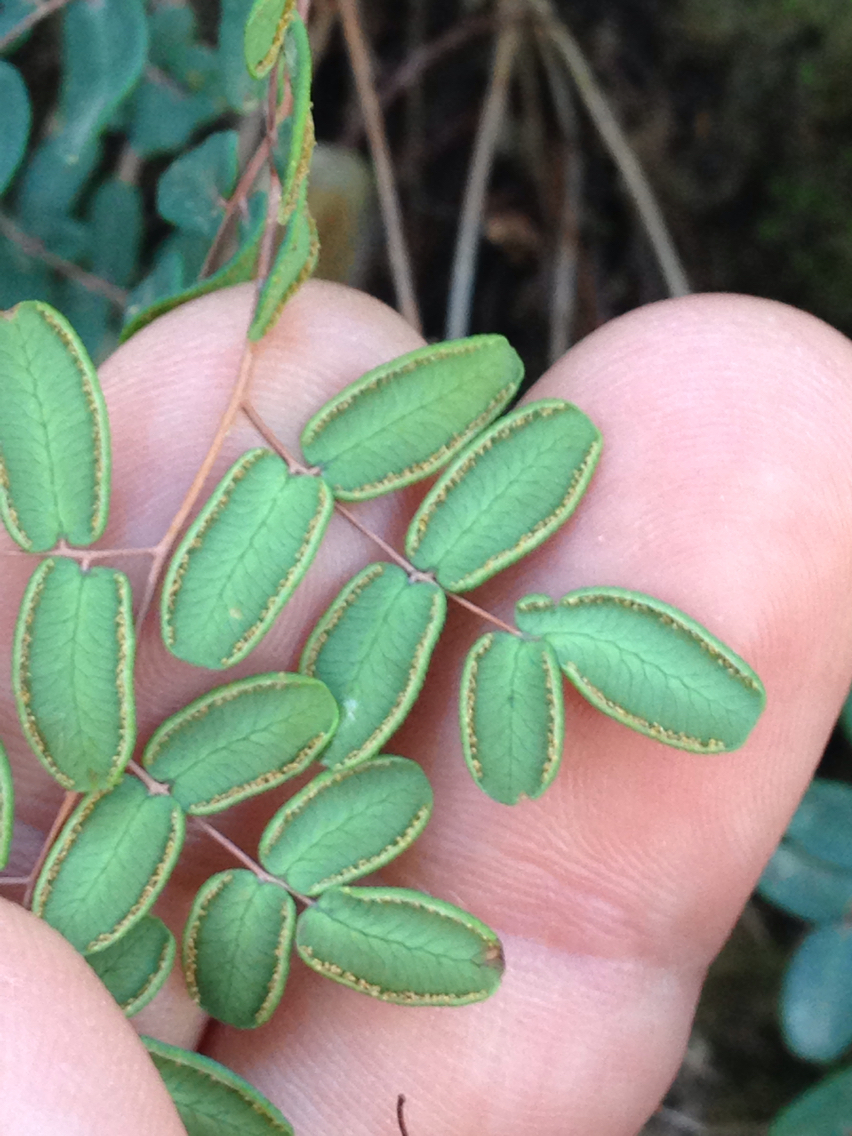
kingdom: Plantae
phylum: Tracheophyta
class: Polypodiopsida
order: Polypodiales
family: Pteridaceae
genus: Pellaea
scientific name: Pellaea andromedifolia
